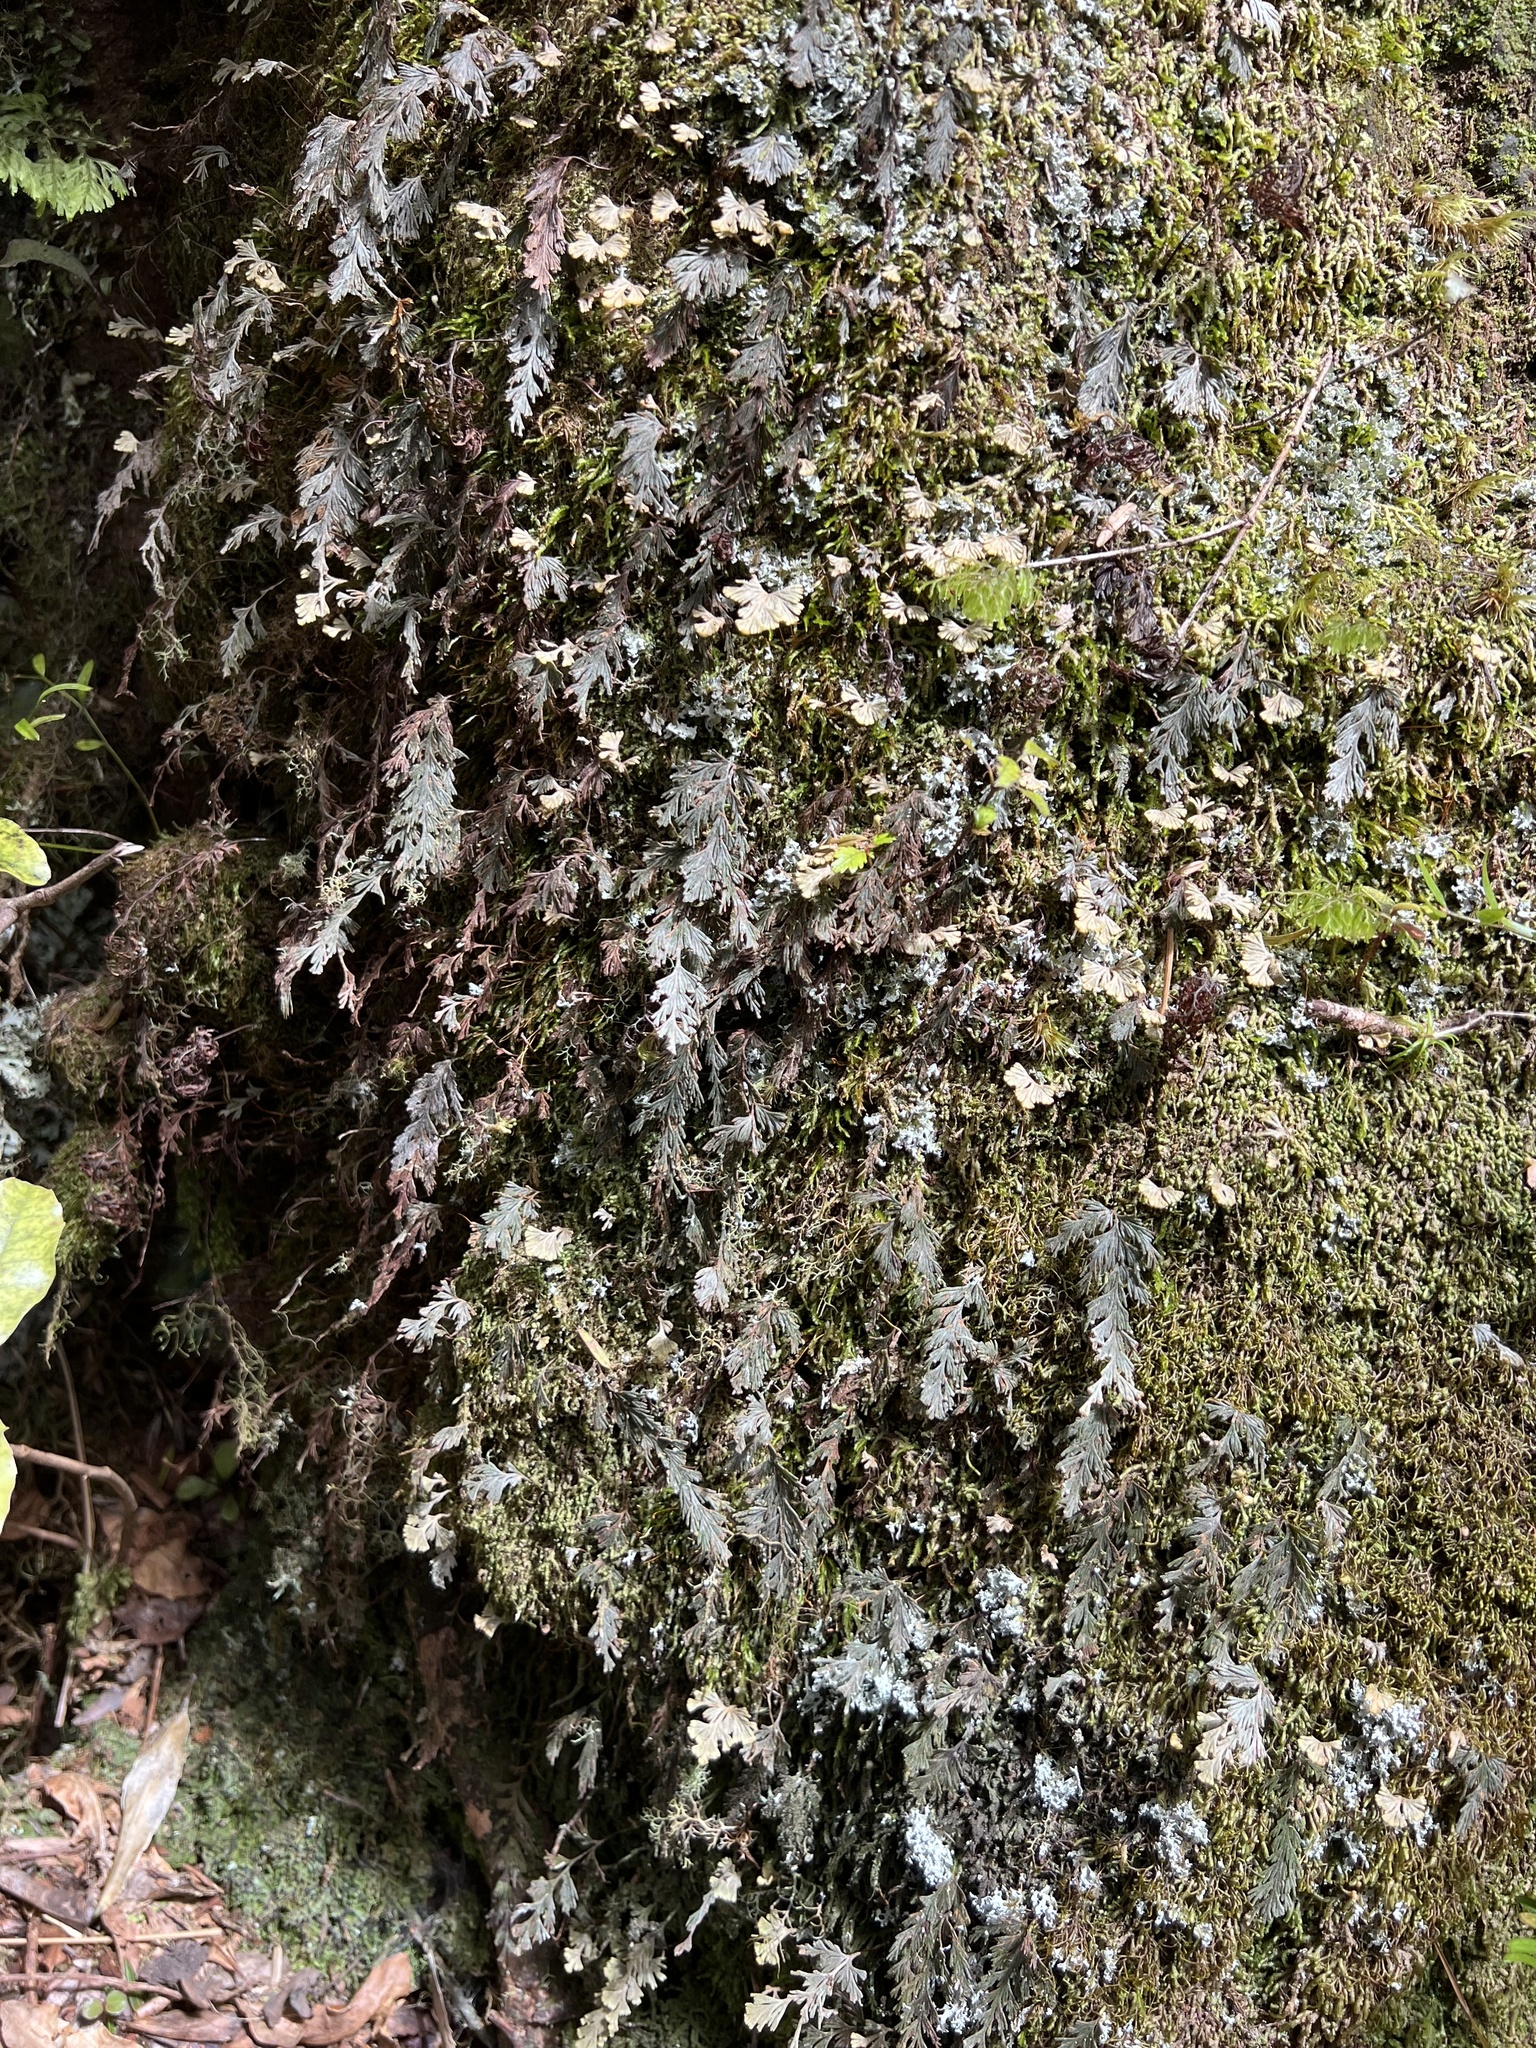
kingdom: Plantae
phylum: Tracheophyta
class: Polypodiopsida
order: Hymenophyllales
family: Hymenophyllaceae
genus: Hymenophyllum
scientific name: Hymenophyllum malingii
